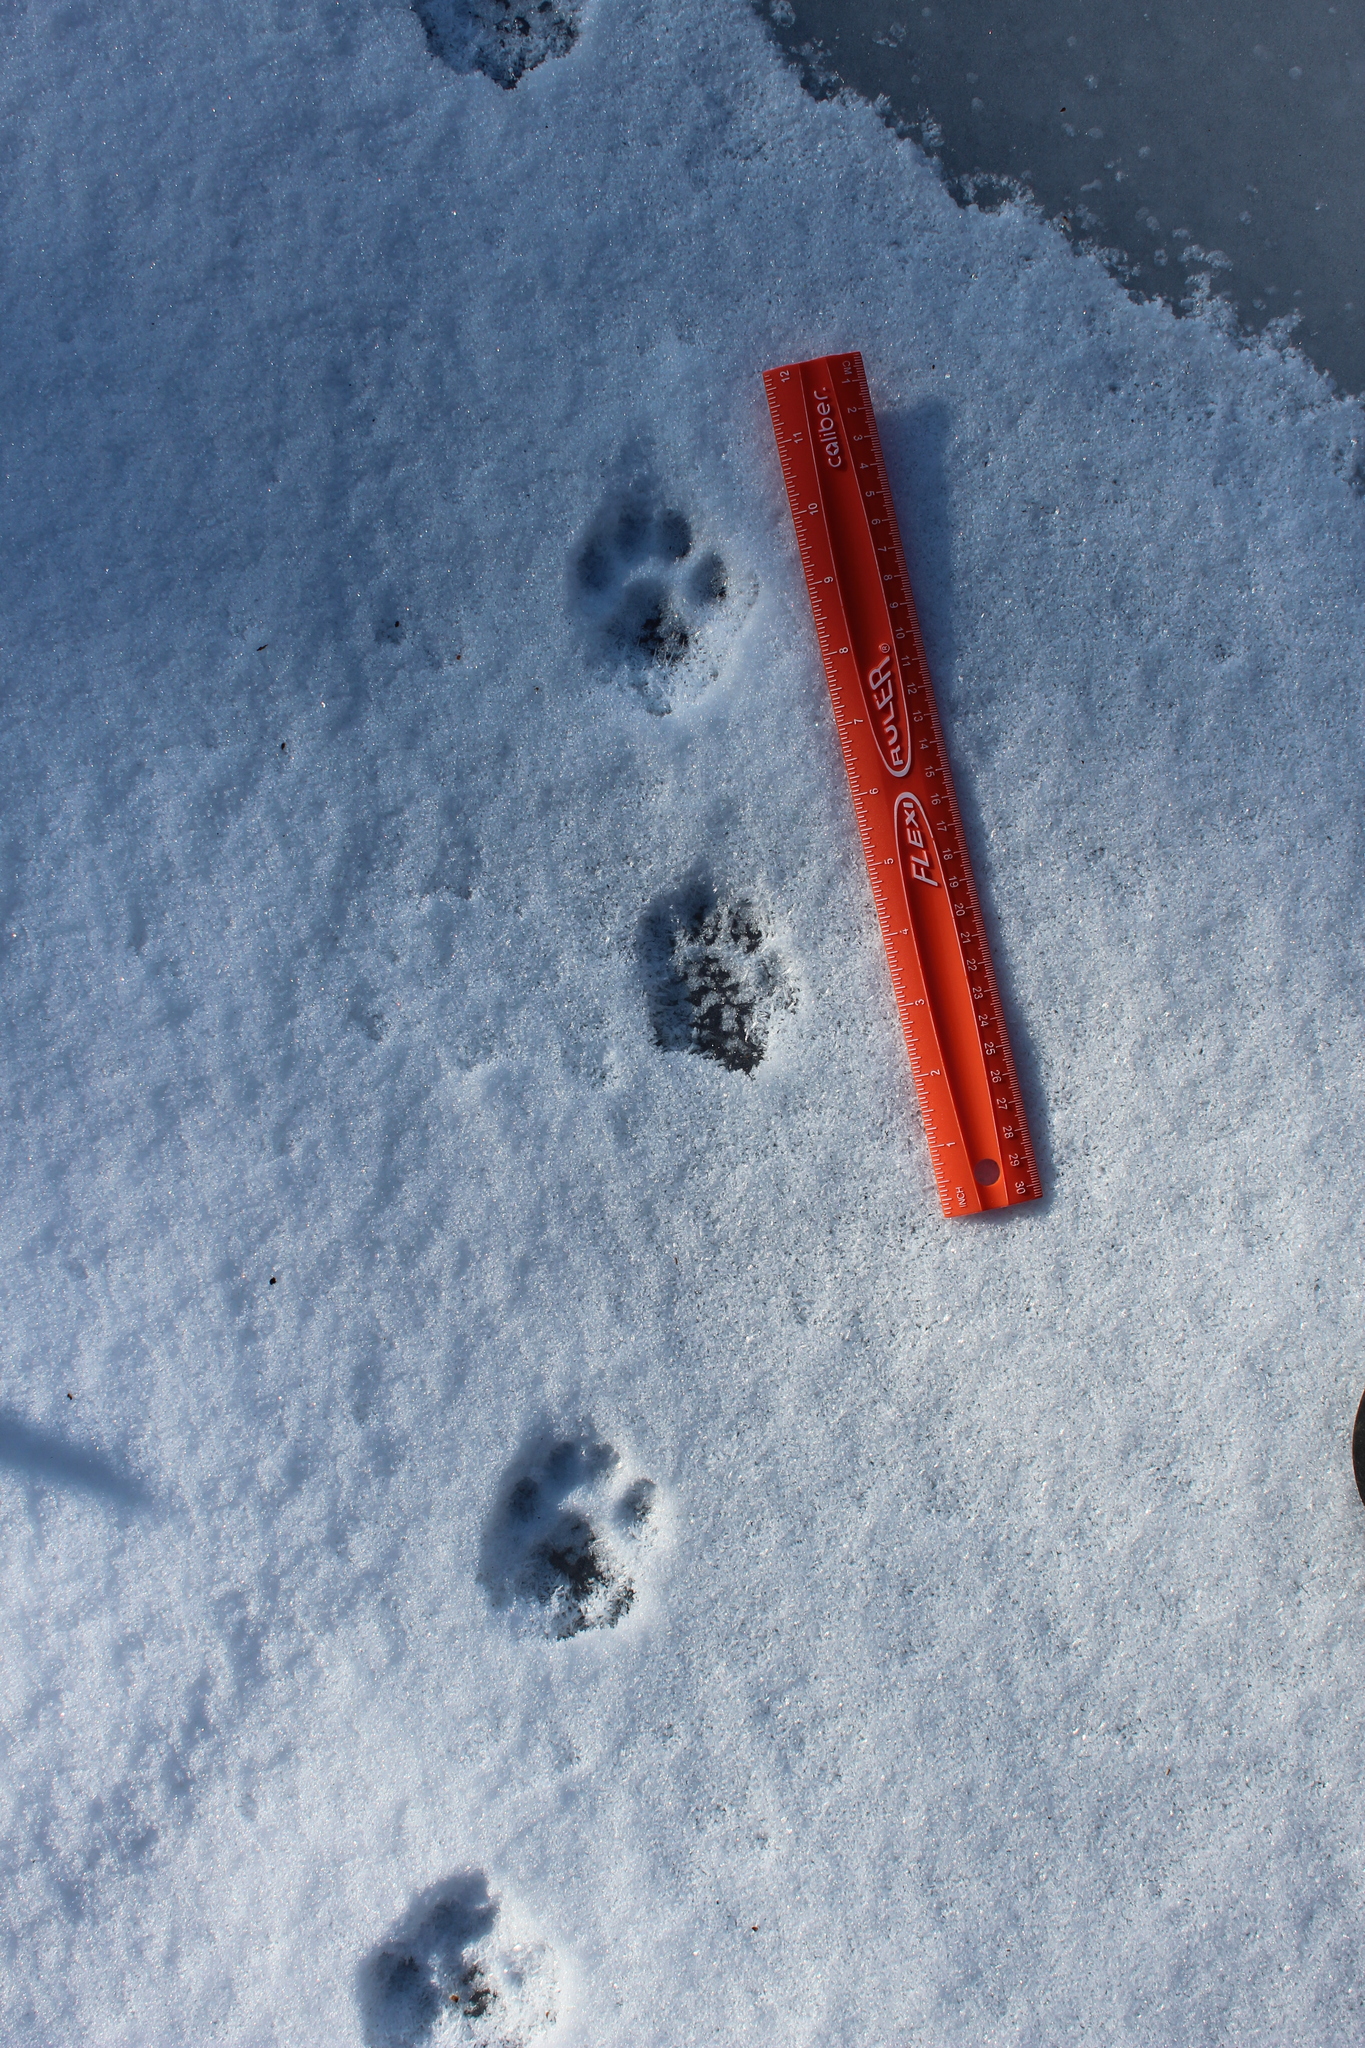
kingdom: Animalia
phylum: Chordata
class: Mammalia
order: Carnivora
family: Felidae
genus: Lynx
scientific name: Lynx rufus
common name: Bobcat
